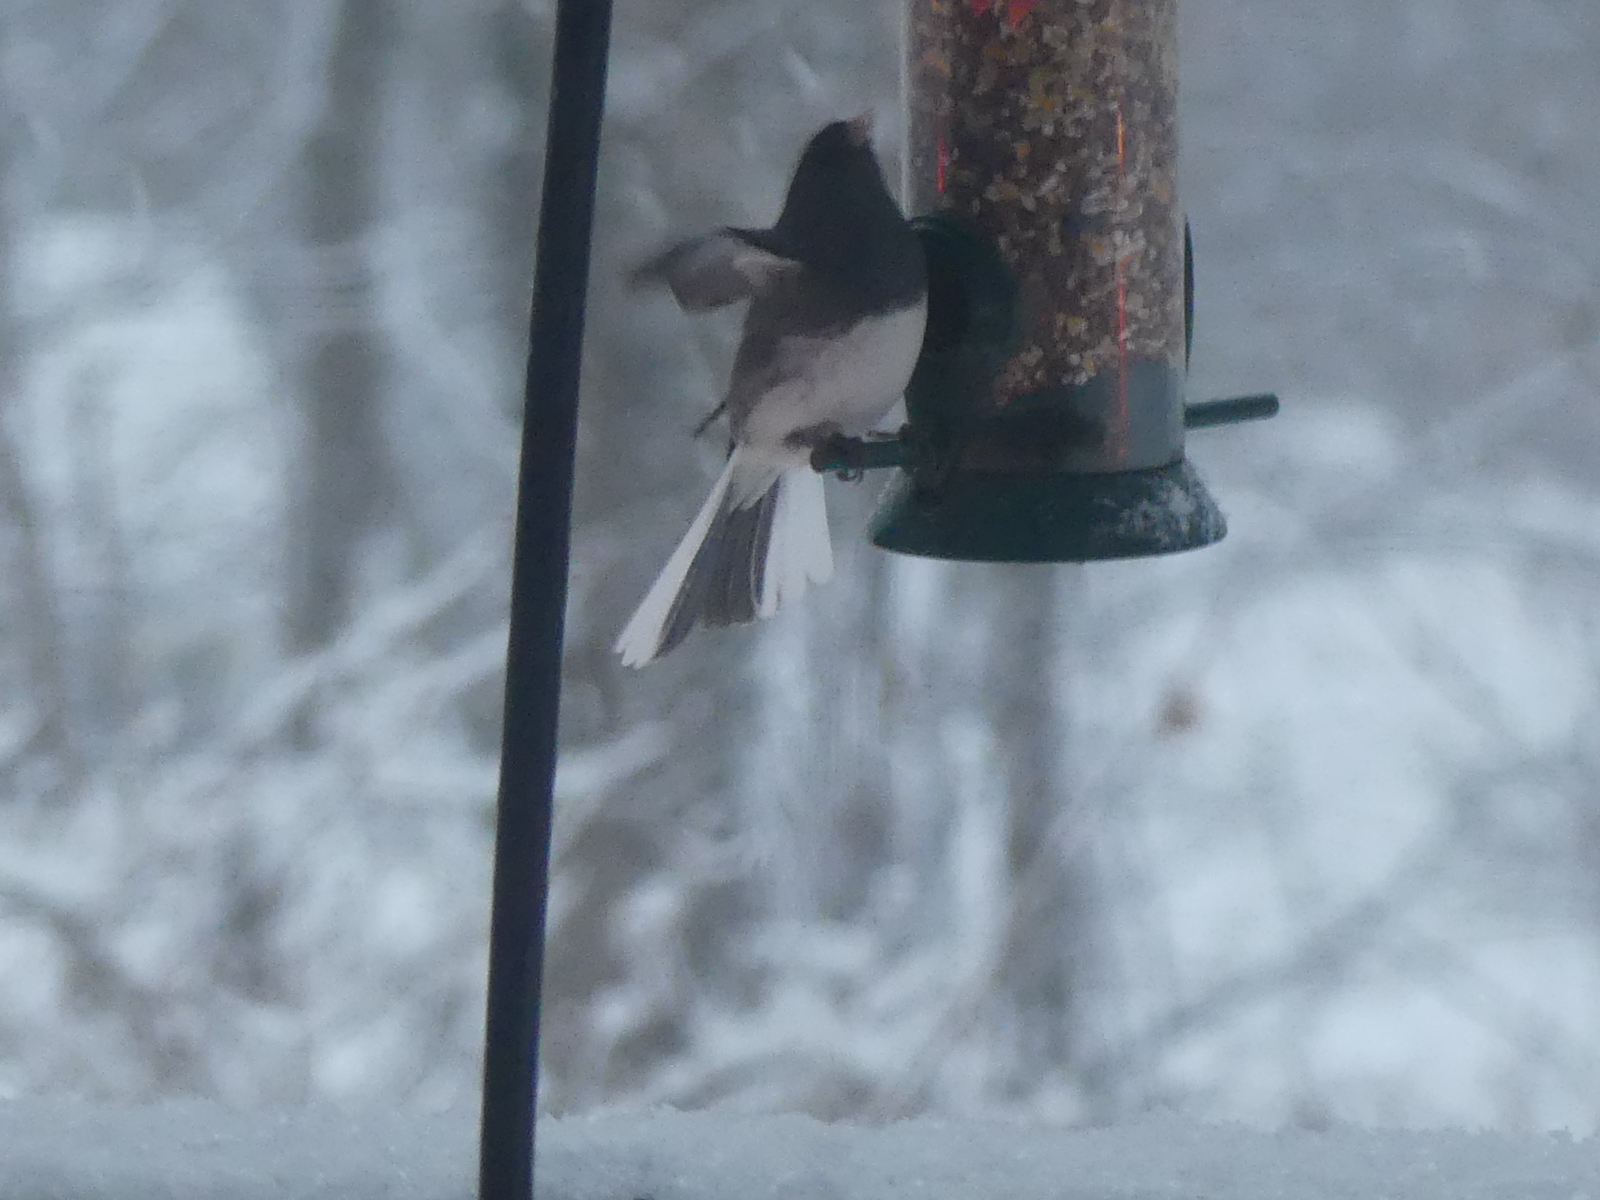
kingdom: Animalia
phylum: Chordata
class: Aves
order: Passeriformes
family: Passerellidae
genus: Junco
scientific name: Junco hyemalis
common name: Dark-eyed junco
